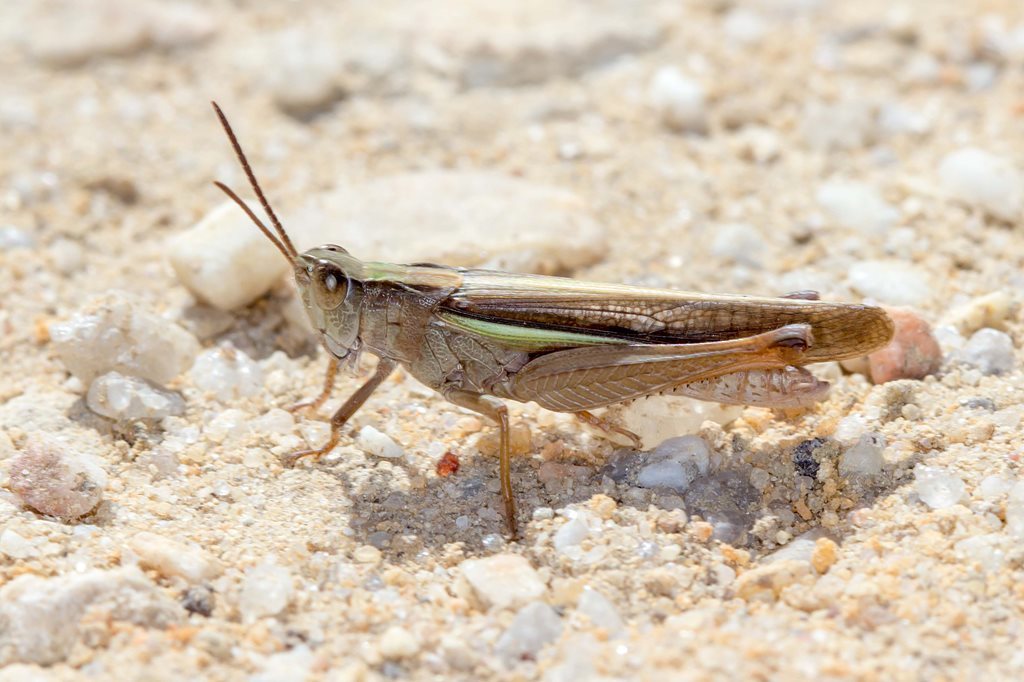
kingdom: Animalia
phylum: Arthropoda
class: Insecta
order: Orthoptera
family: Acrididae
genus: Schizobothrus
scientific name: Schizobothrus flavovittatus
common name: Disappearing grasshopper
